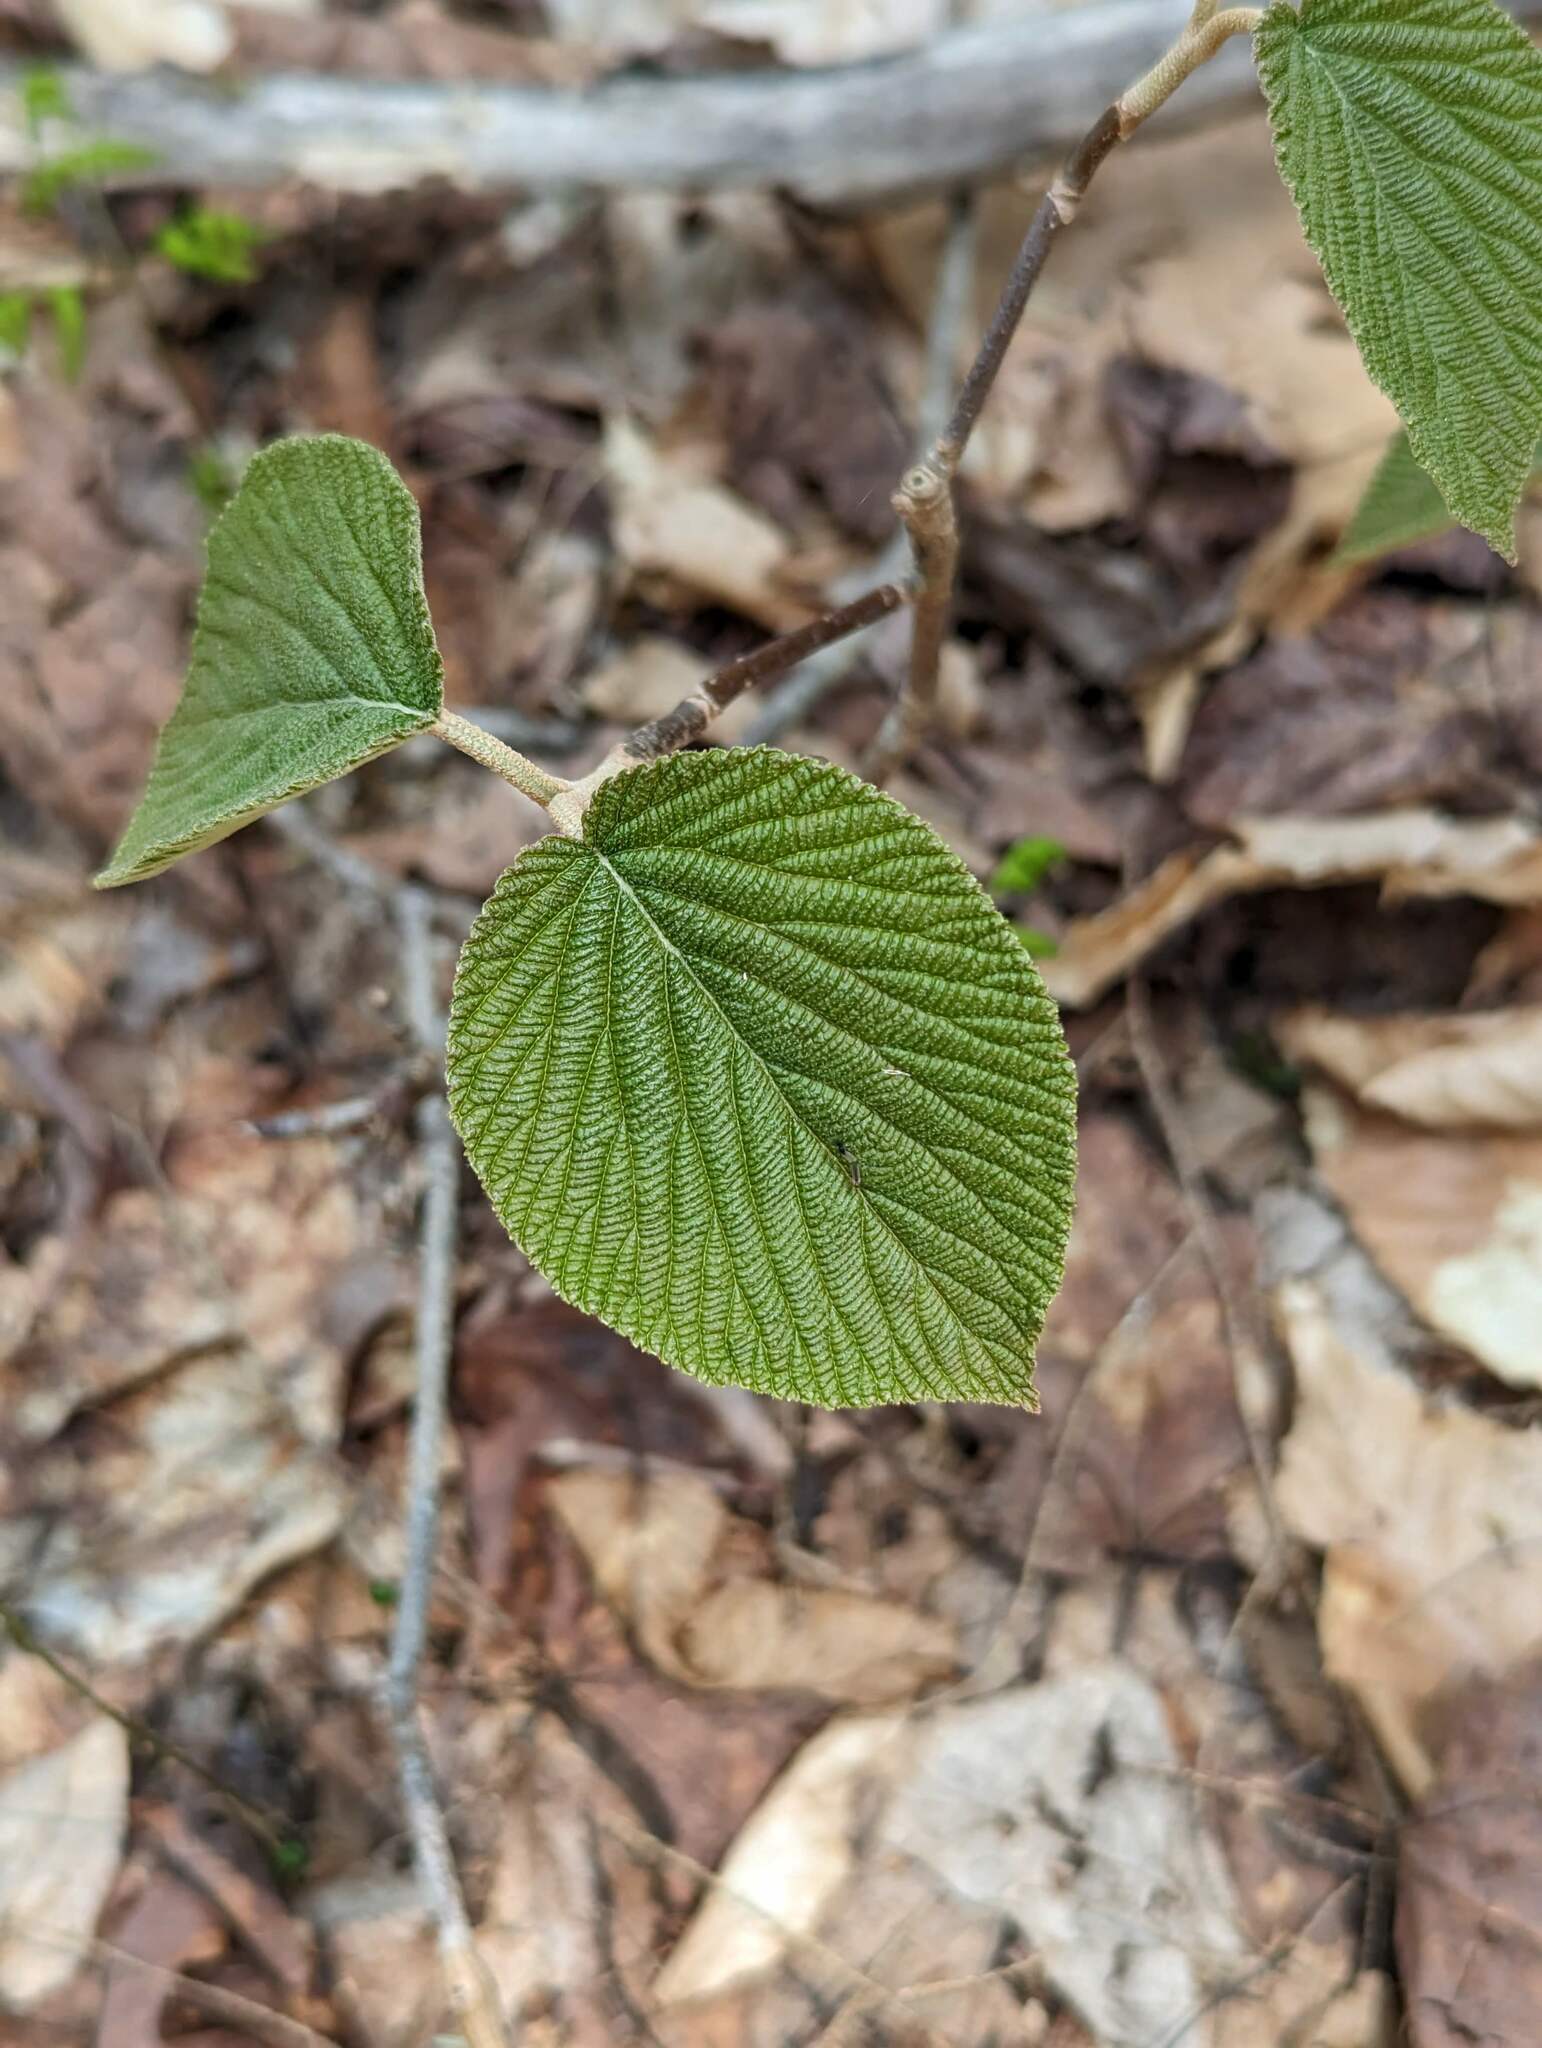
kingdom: Plantae
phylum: Tracheophyta
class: Magnoliopsida
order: Dipsacales
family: Viburnaceae
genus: Viburnum
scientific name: Viburnum lantanoides
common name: Hobblebush
